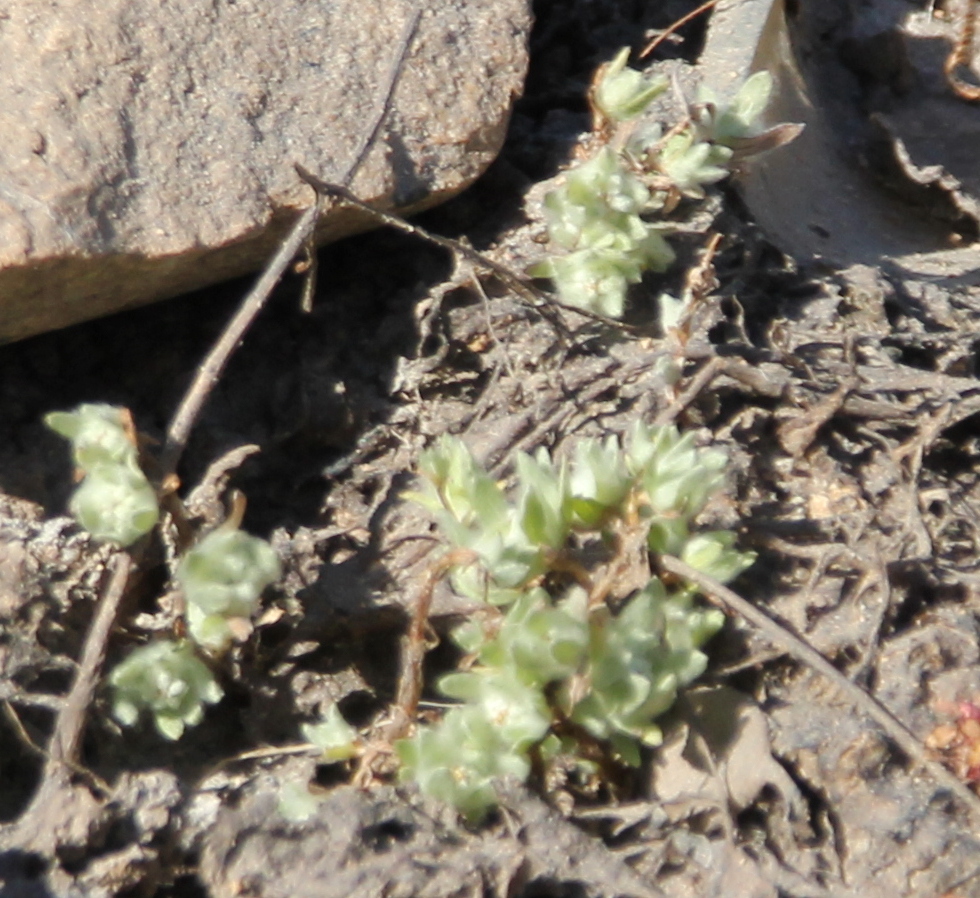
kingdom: Plantae
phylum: Tracheophyta
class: Magnoliopsida
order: Asterales
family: Asteraceae
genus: Psilocarphus
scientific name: Psilocarphus tenellus
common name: Slender woolly-marbles
